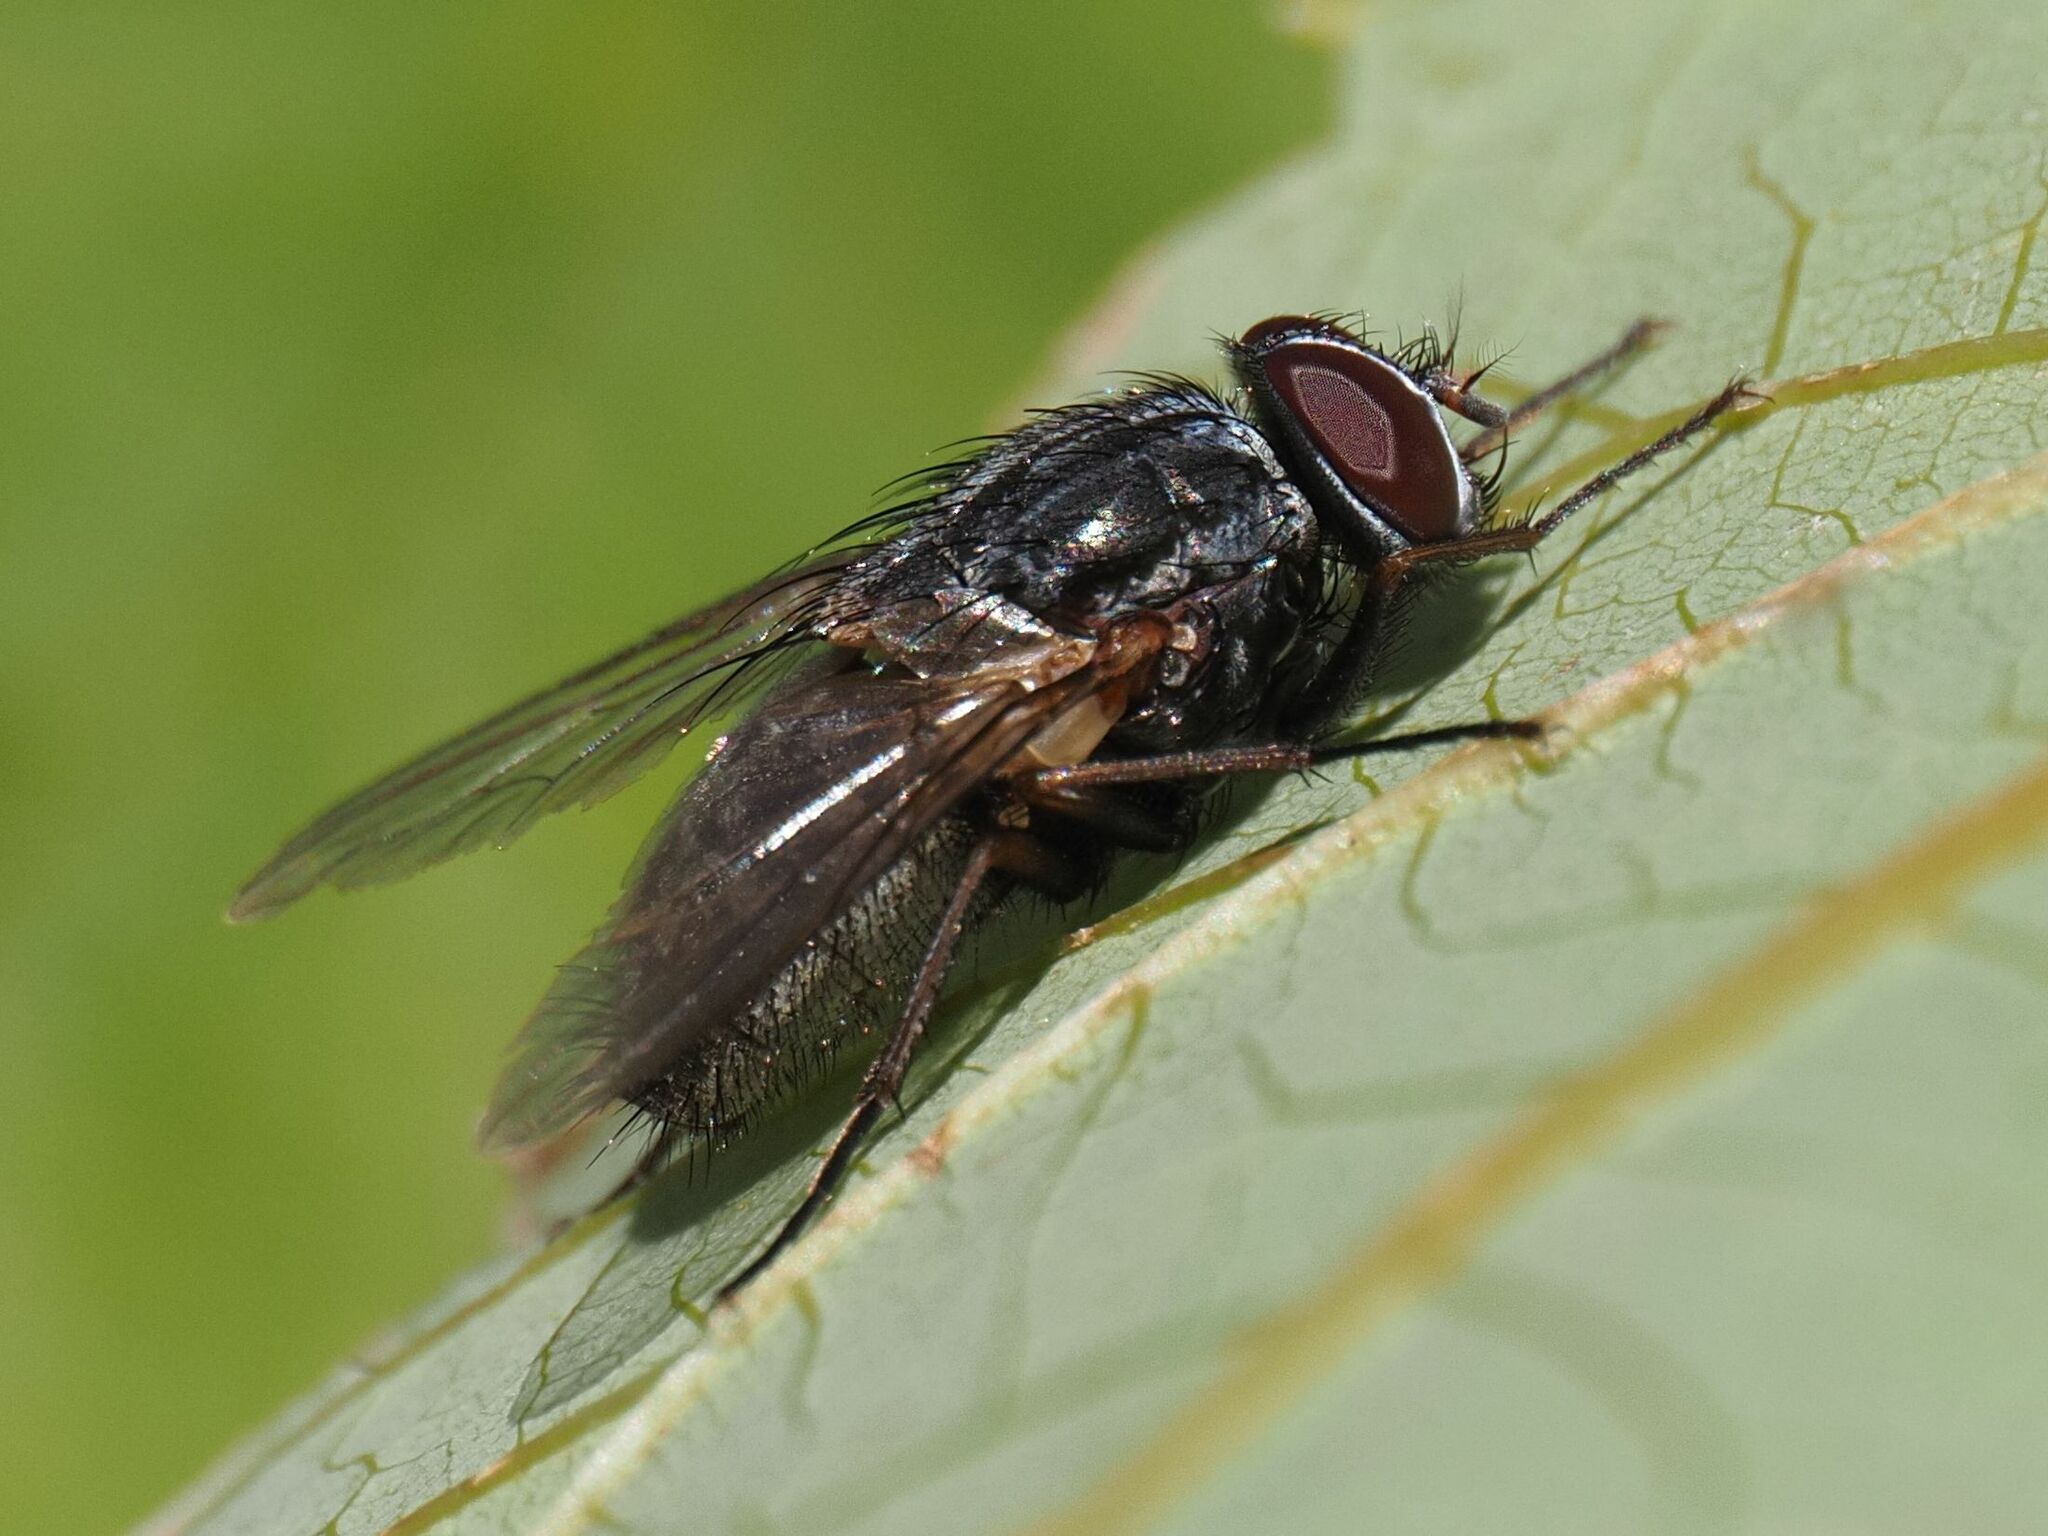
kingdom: Animalia
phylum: Arthropoda
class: Insecta
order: Diptera
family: Muscidae
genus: Muscina
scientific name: Muscina stabulans
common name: False stable fly
